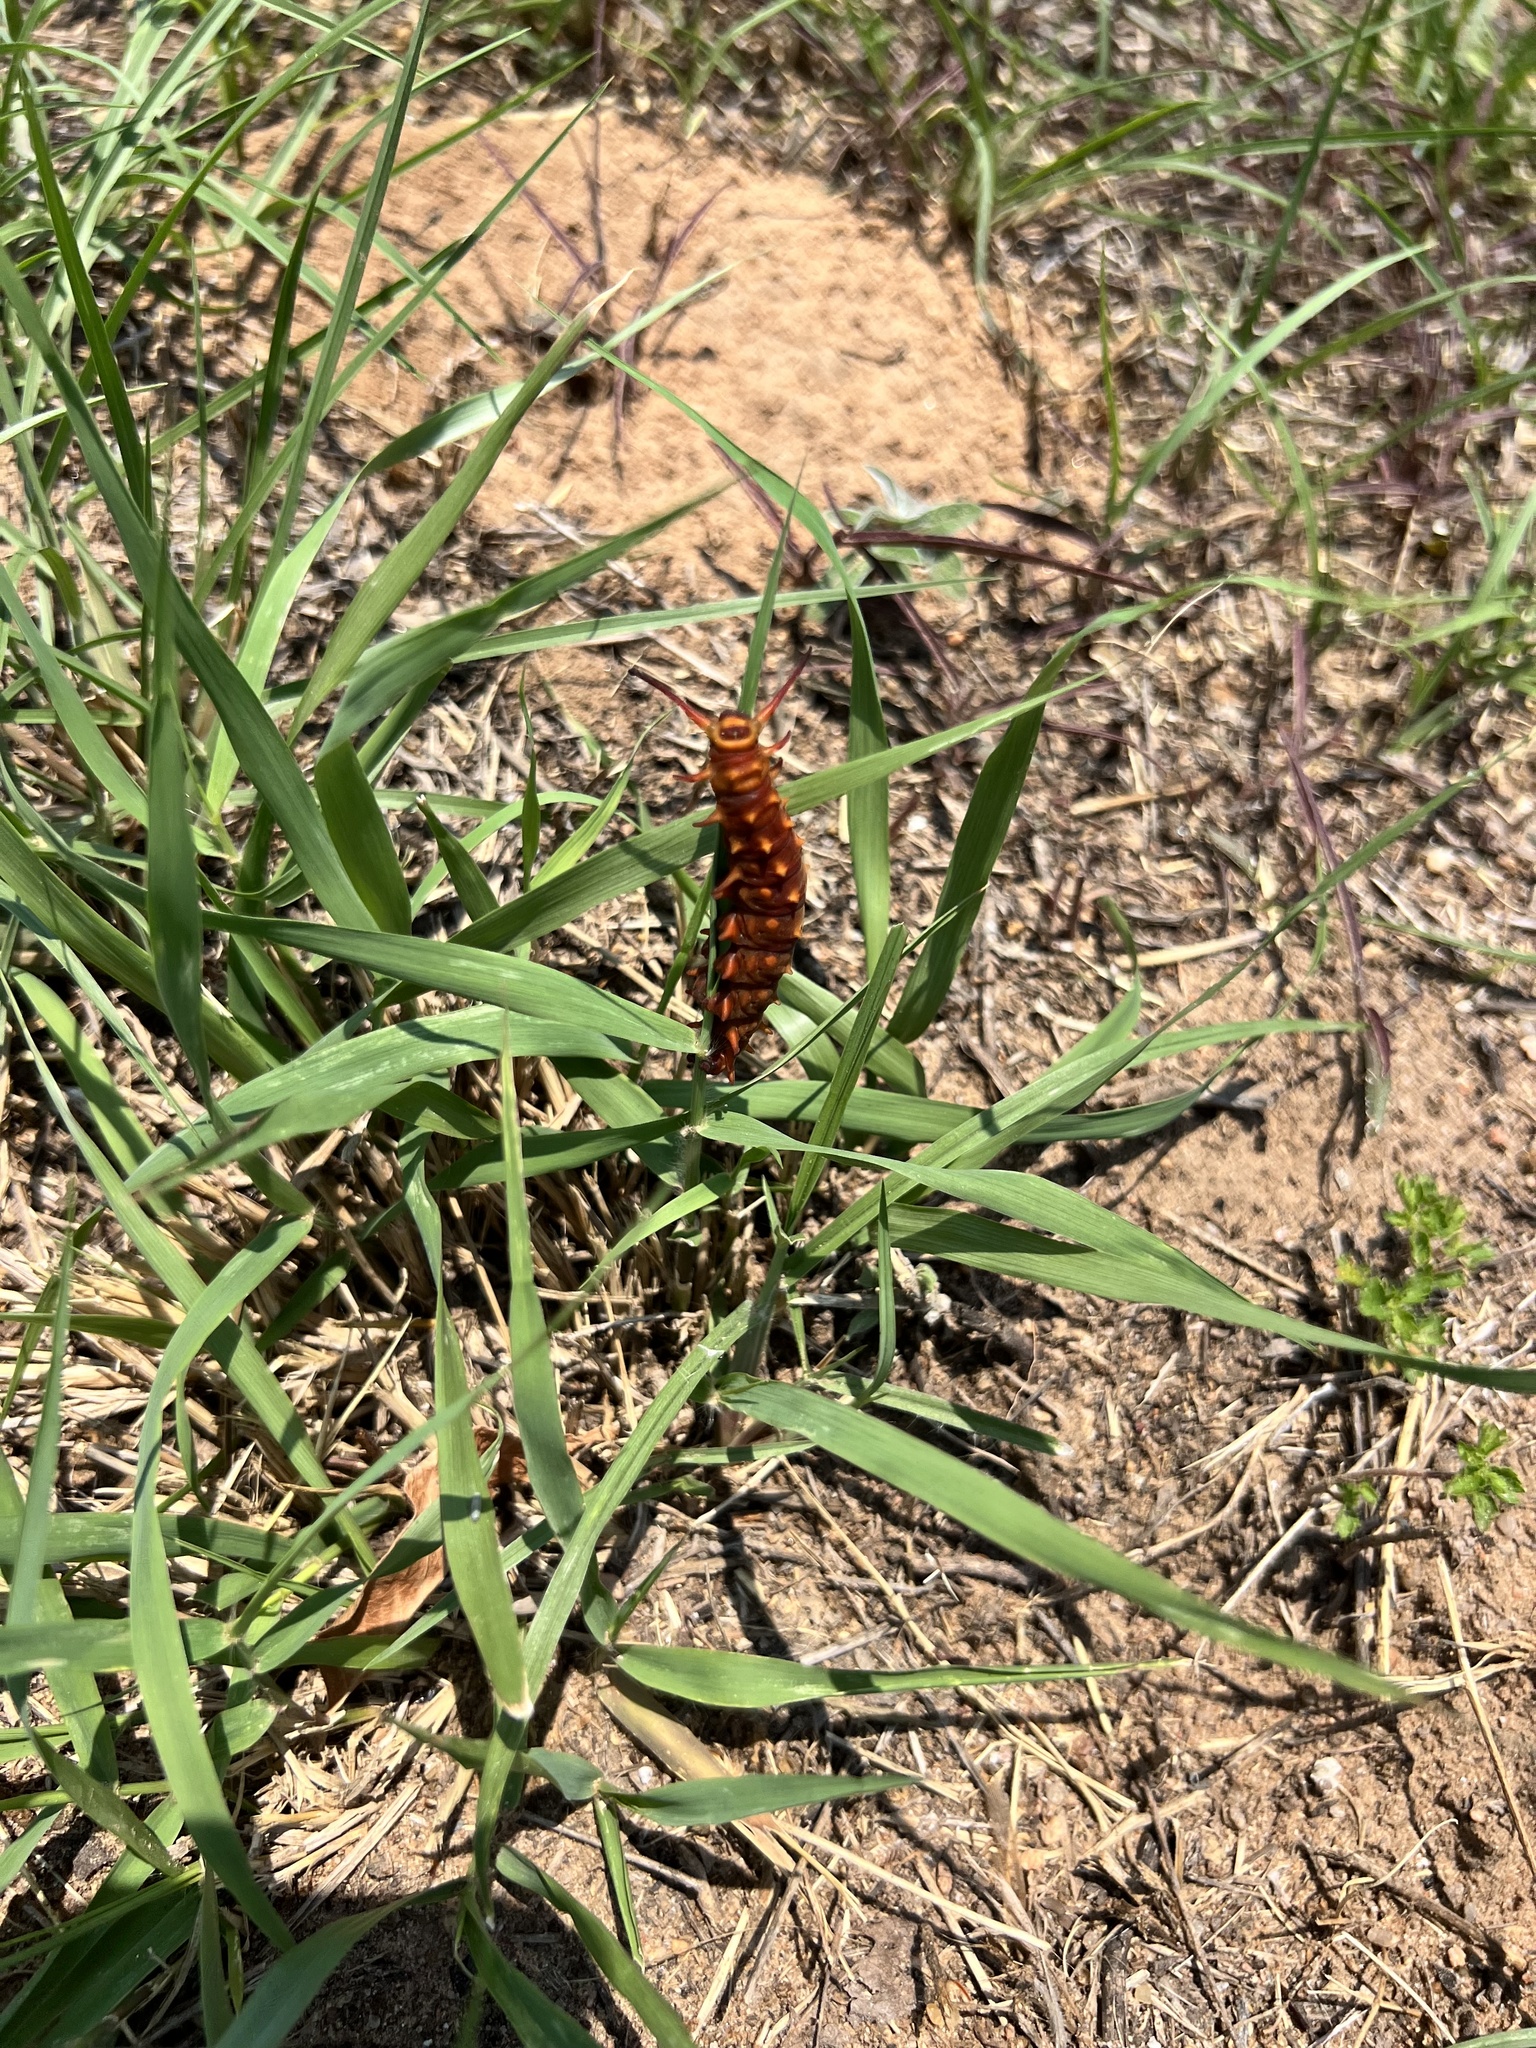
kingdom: Animalia
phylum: Arthropoda
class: Insecta
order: Lepidoptera
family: Papilionidae
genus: Battus
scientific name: Battus philenor
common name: Pipevine swallowtail
